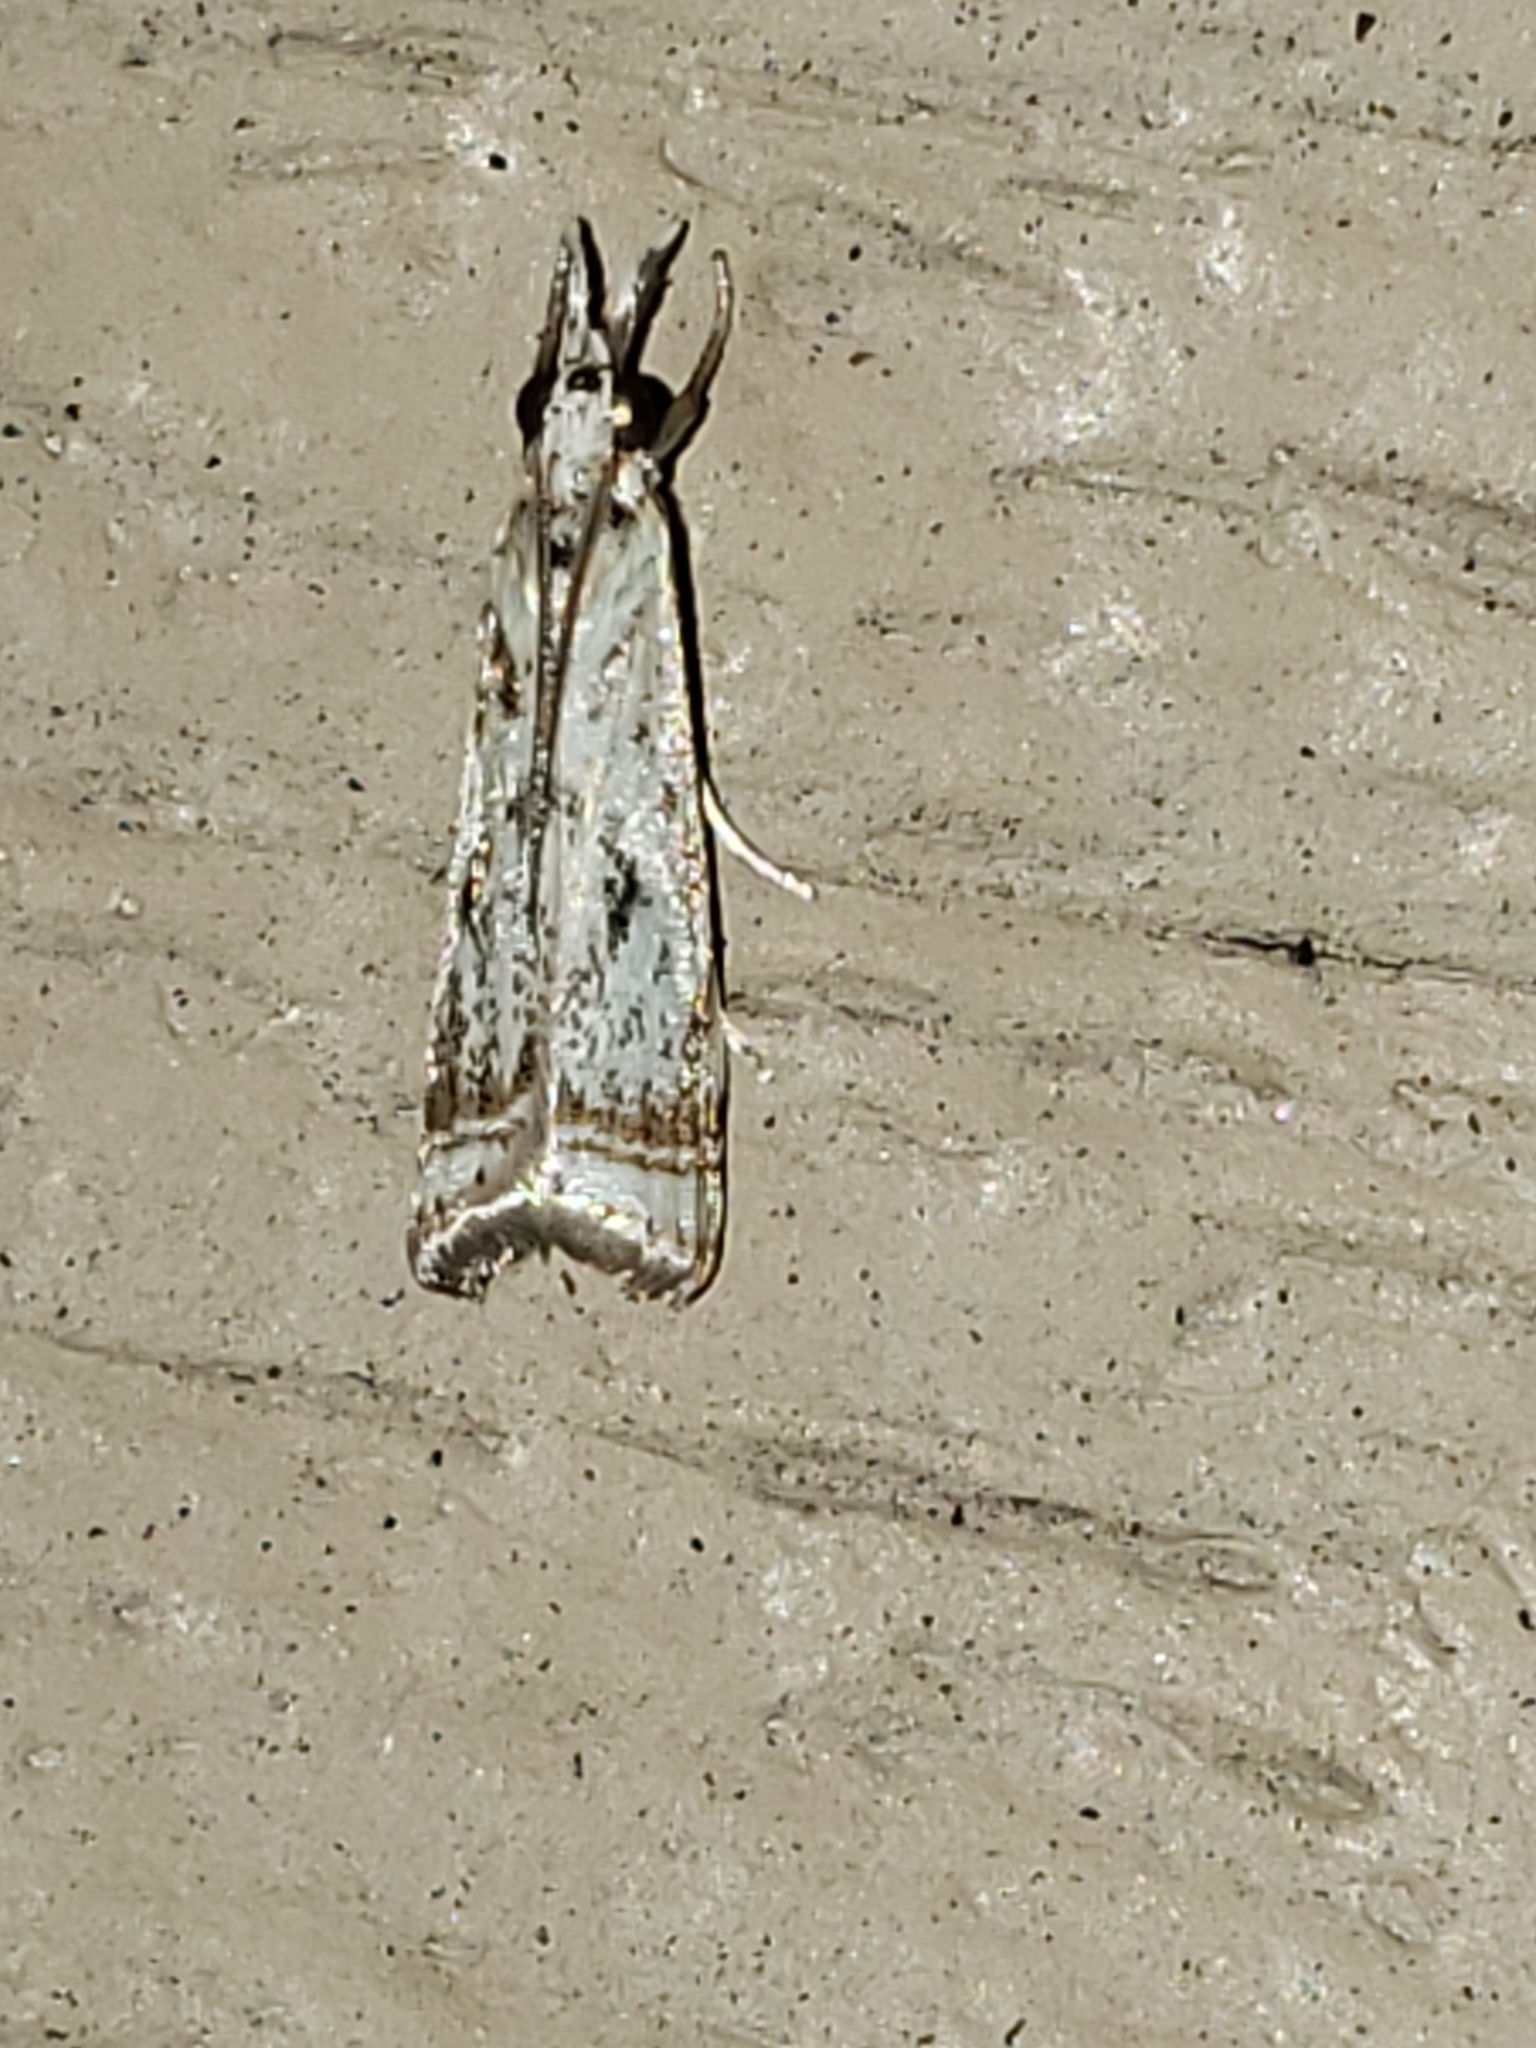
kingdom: Animalia
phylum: Arthropoda
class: Insecta
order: Lepidoptera
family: Crambidae
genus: Microcrambus
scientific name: Microcrambus elegans
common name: Elegant grass-veneer
